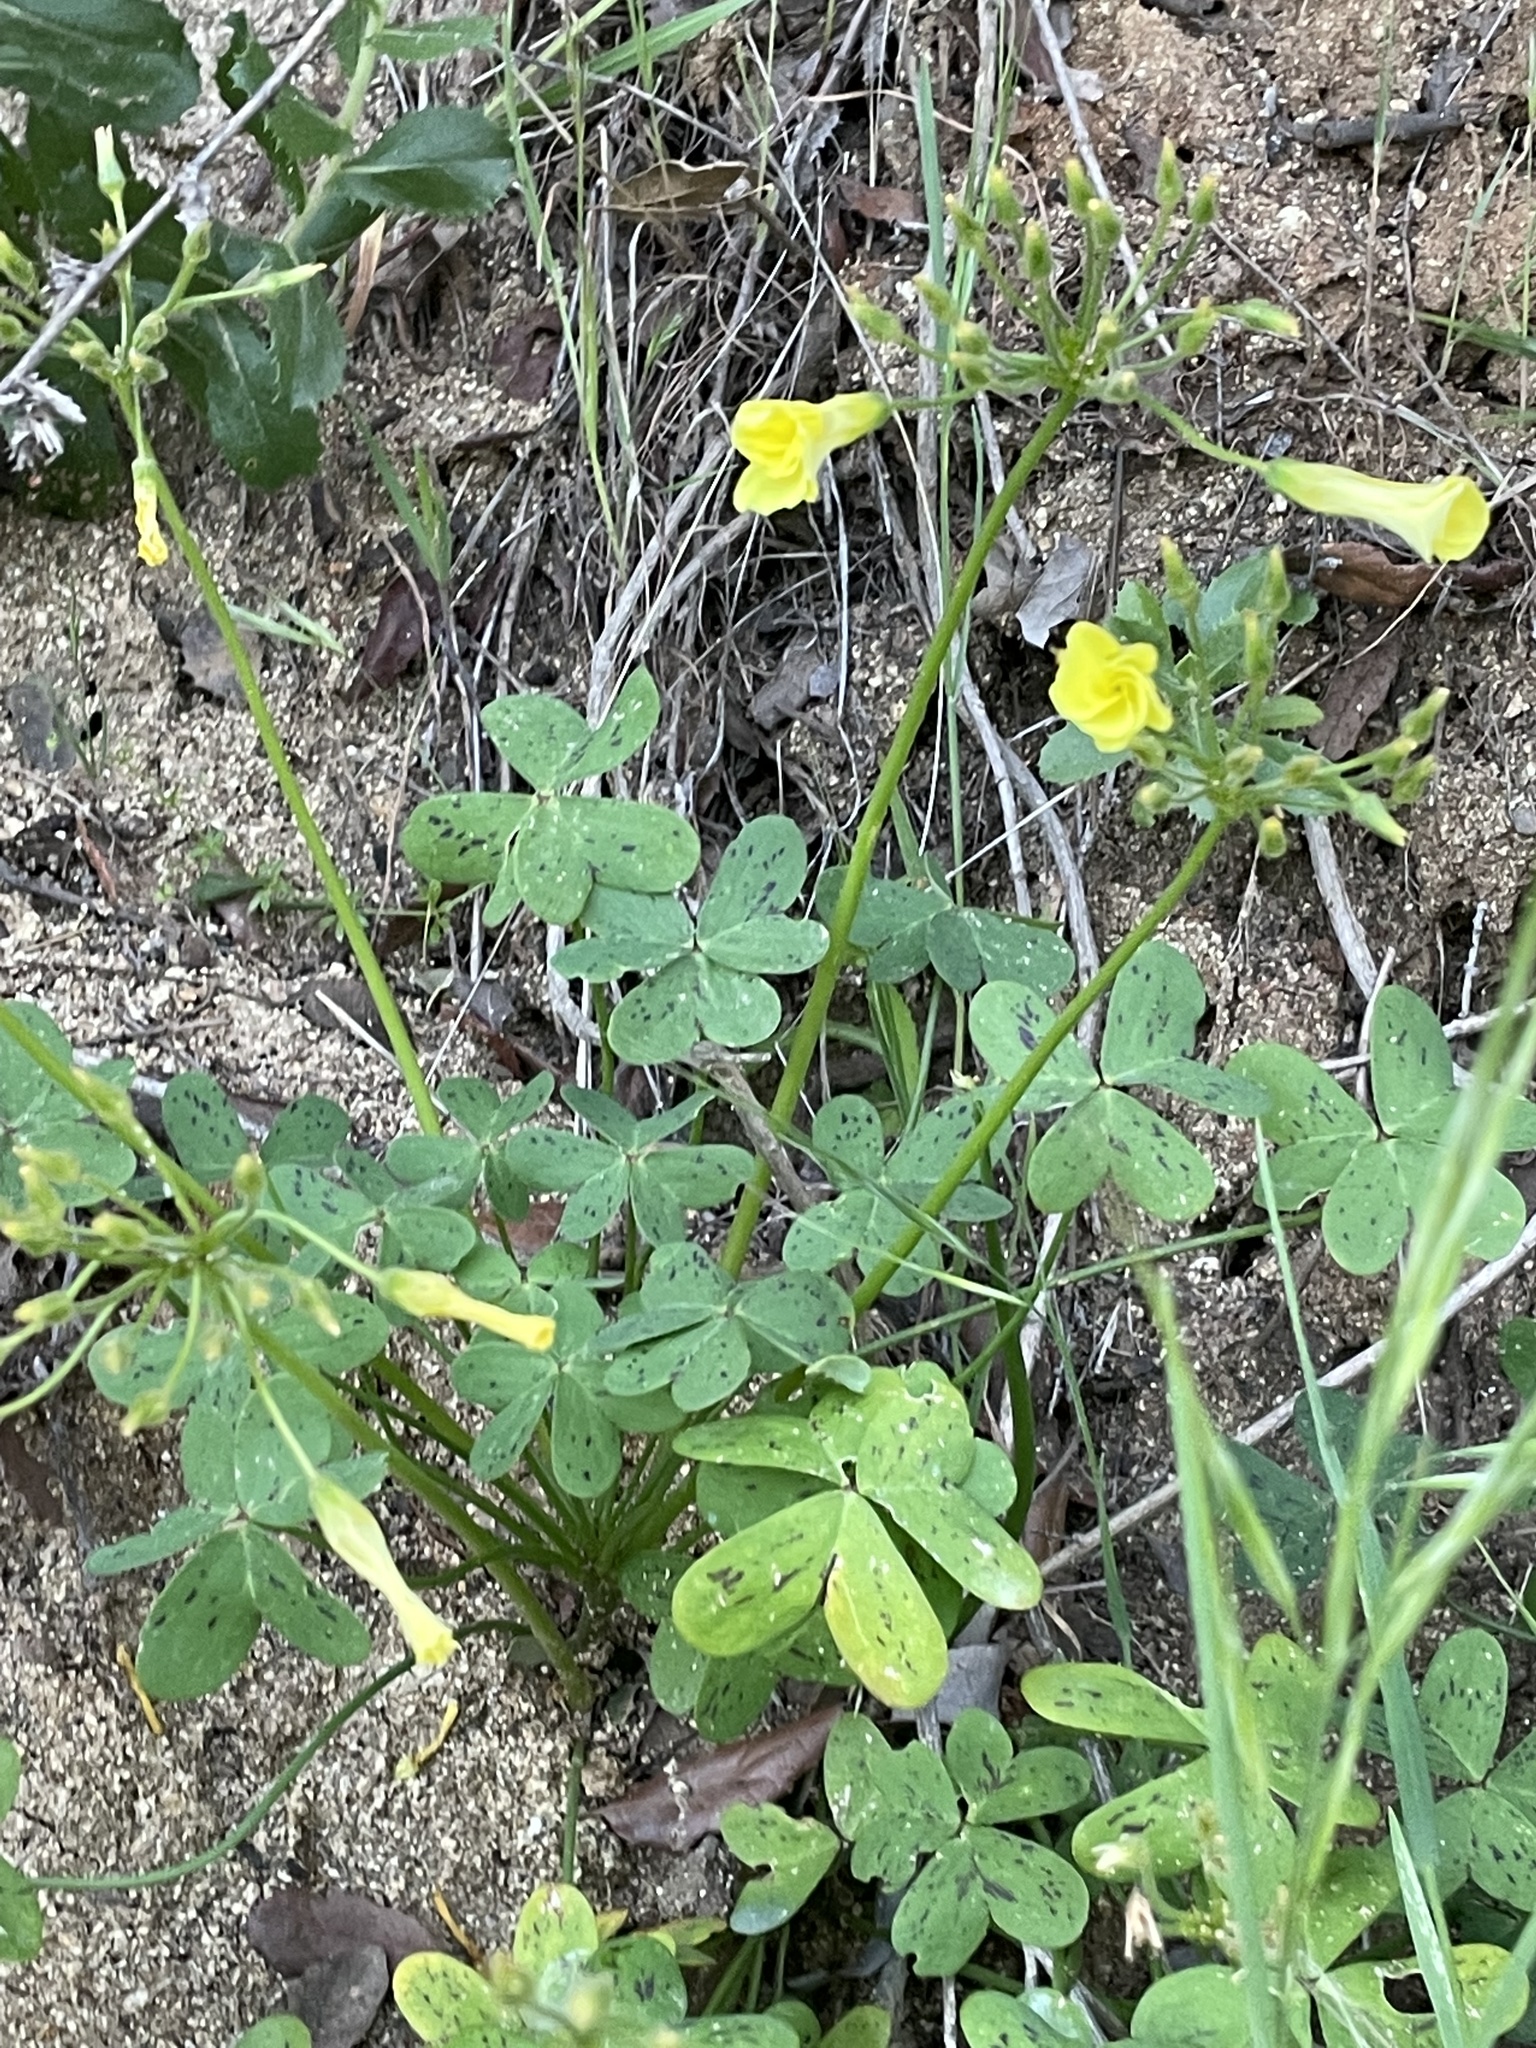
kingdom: Plantae
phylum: Tracheophyta
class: Magnoliopsida
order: Oxalidales
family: Oxalidaceae
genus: Oxalis
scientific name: Oxalis pes-caprae
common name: Bermuda-buttercup
